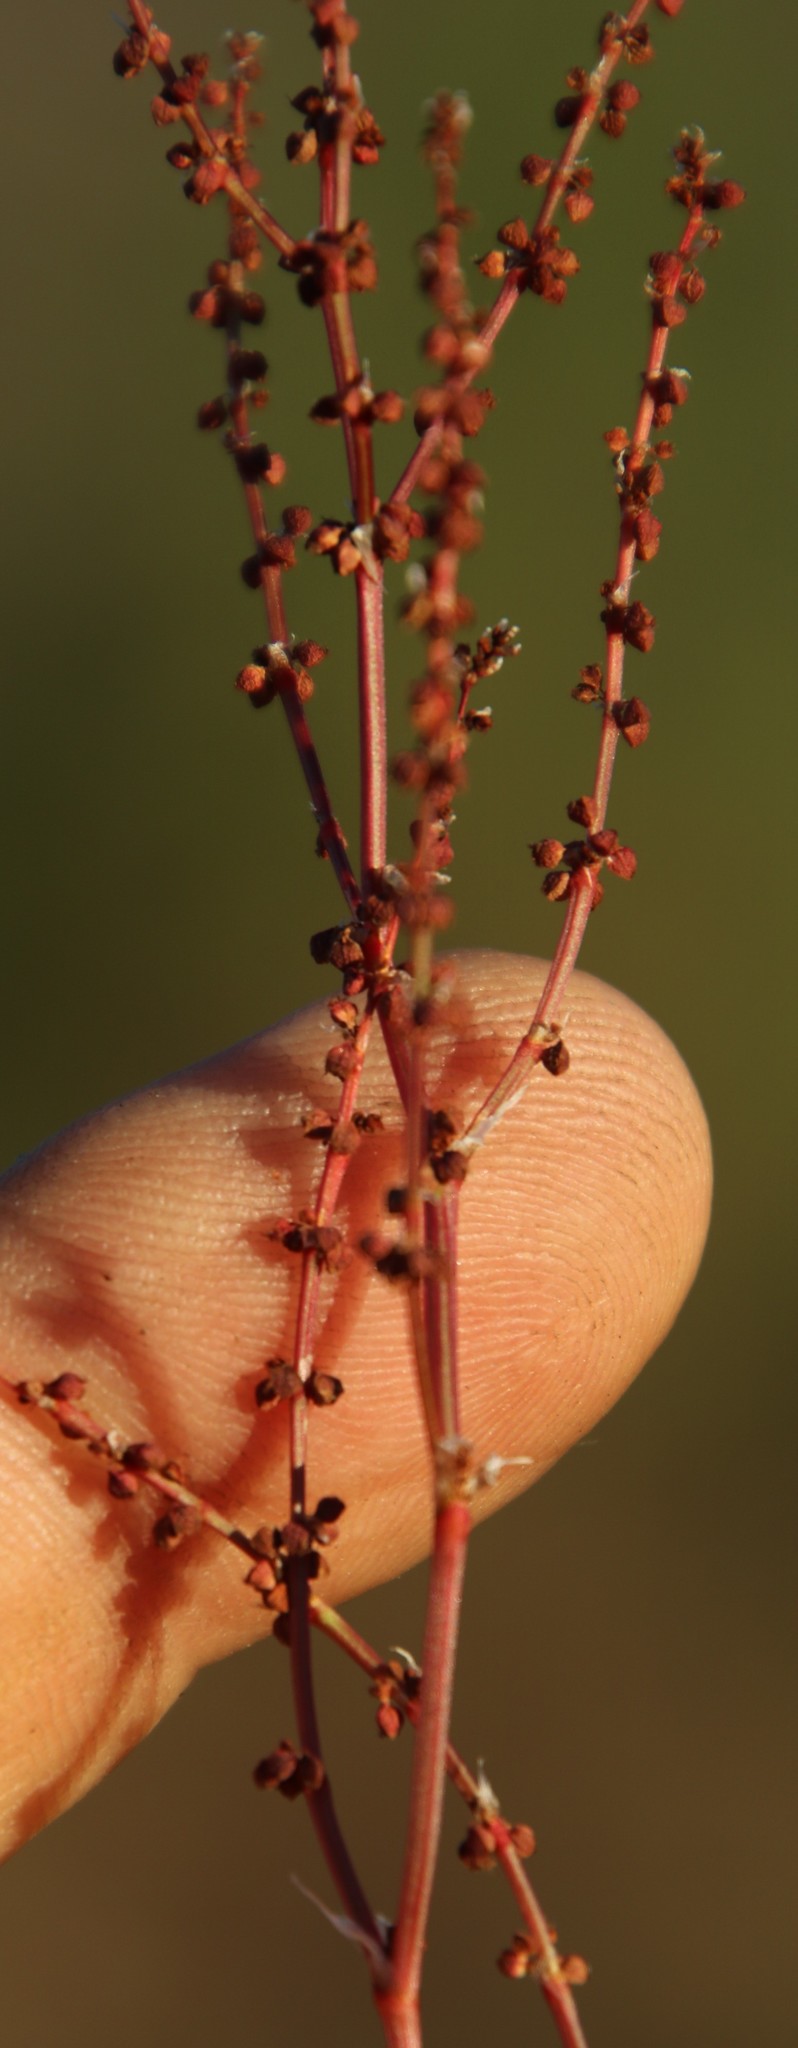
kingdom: Plantae
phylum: Tracheophyta
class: Magnoliopsida
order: Caryophyllales
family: Polygonaceae
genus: Rumex
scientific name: Rumex acetosella
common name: Common sheep sorrel
